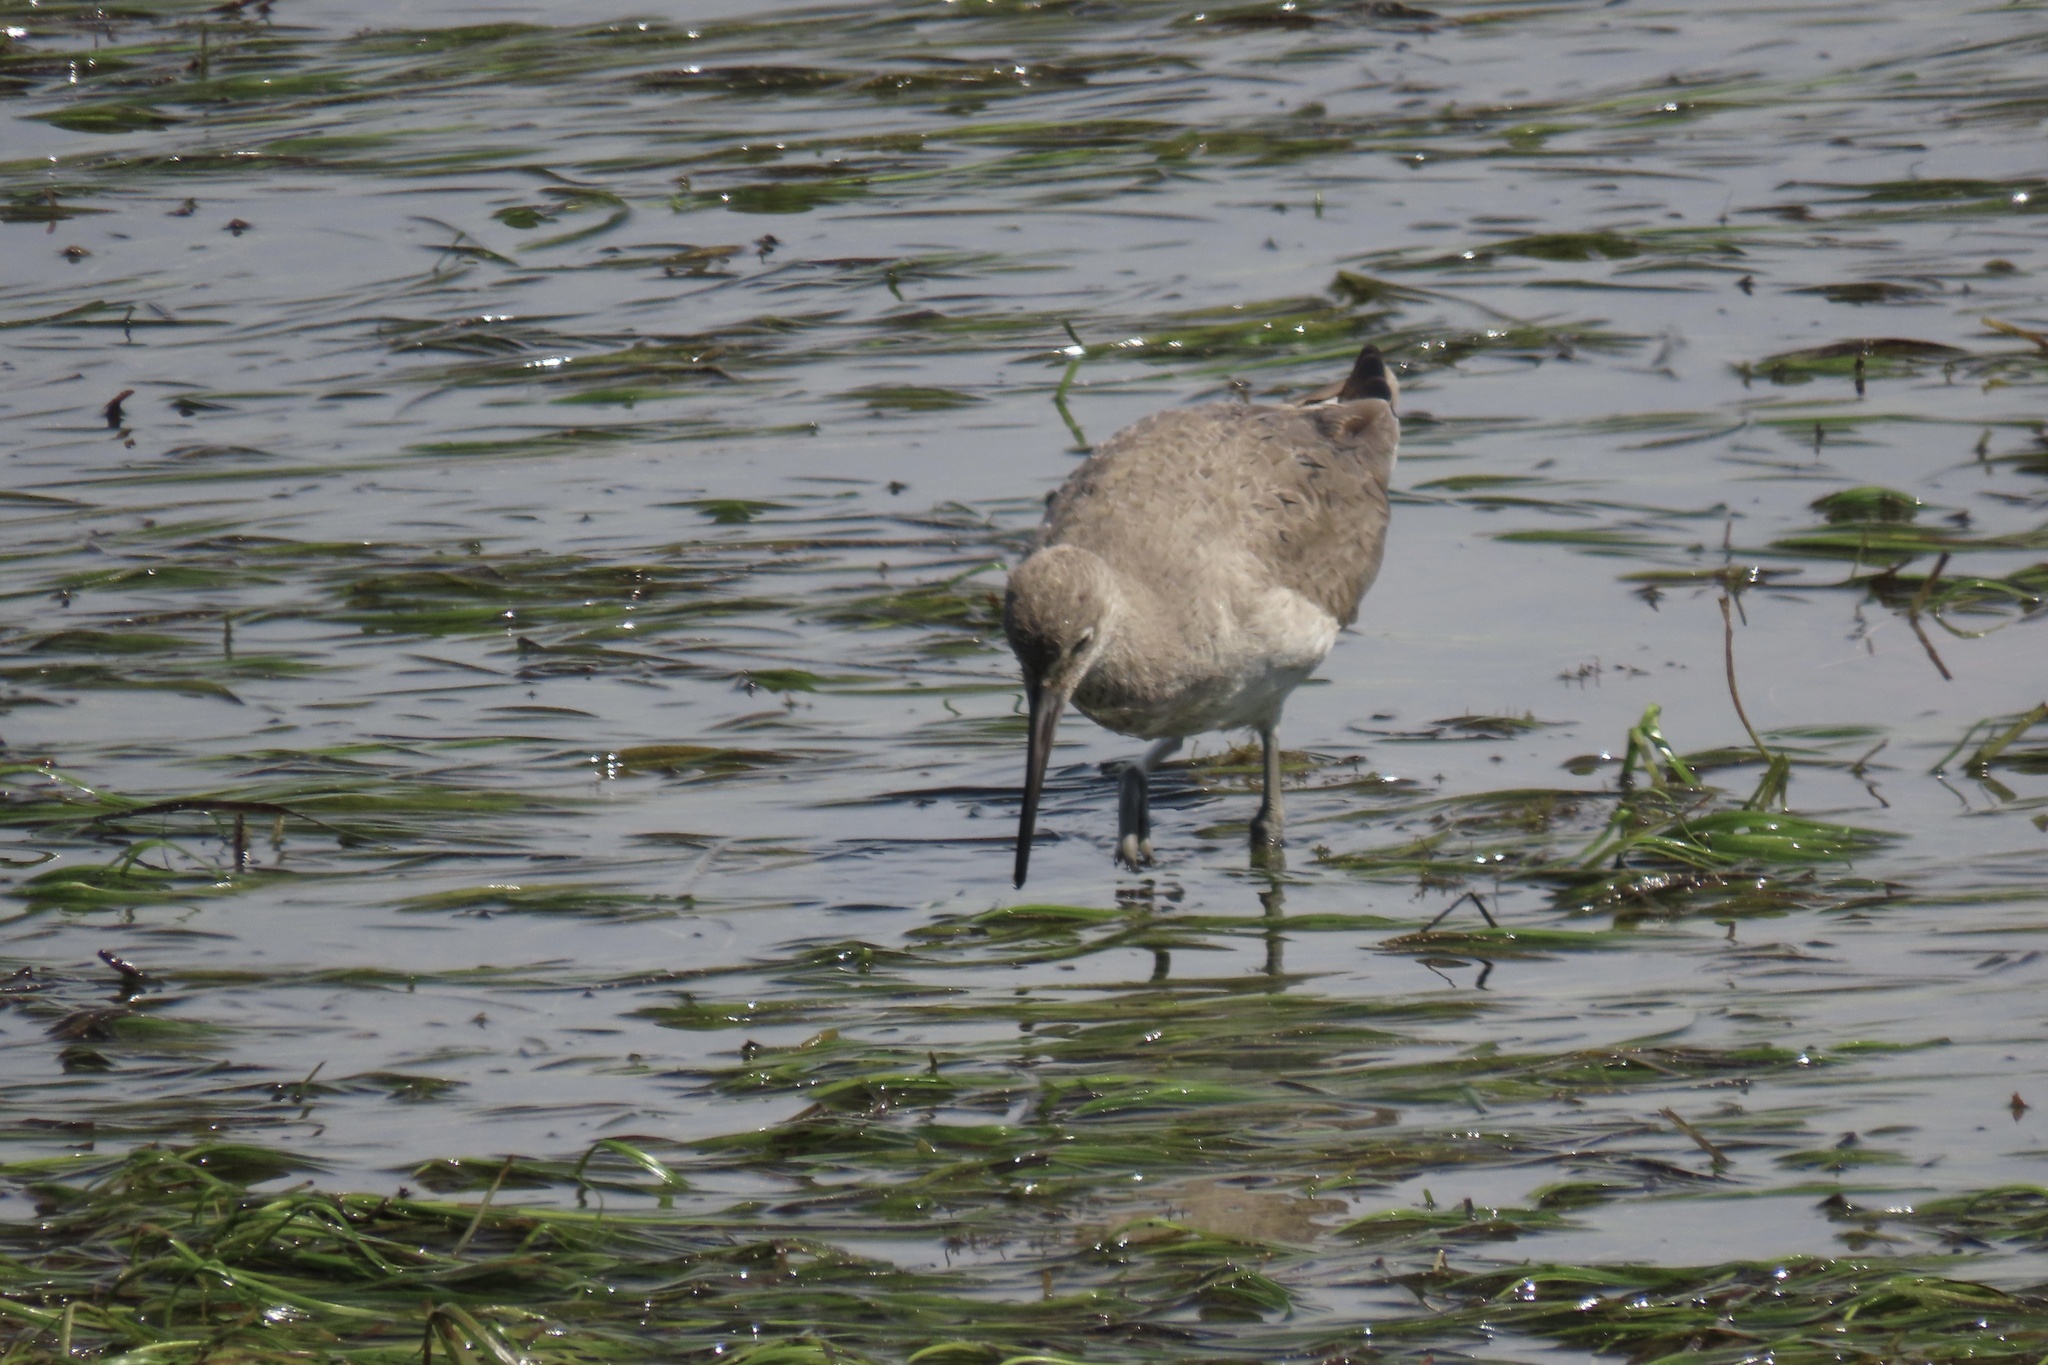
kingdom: Animalia
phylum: Chordata
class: Aves
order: Charadriiformes
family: Scolopacidae
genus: Tringa
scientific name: Tringa semipalmata
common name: Willet
